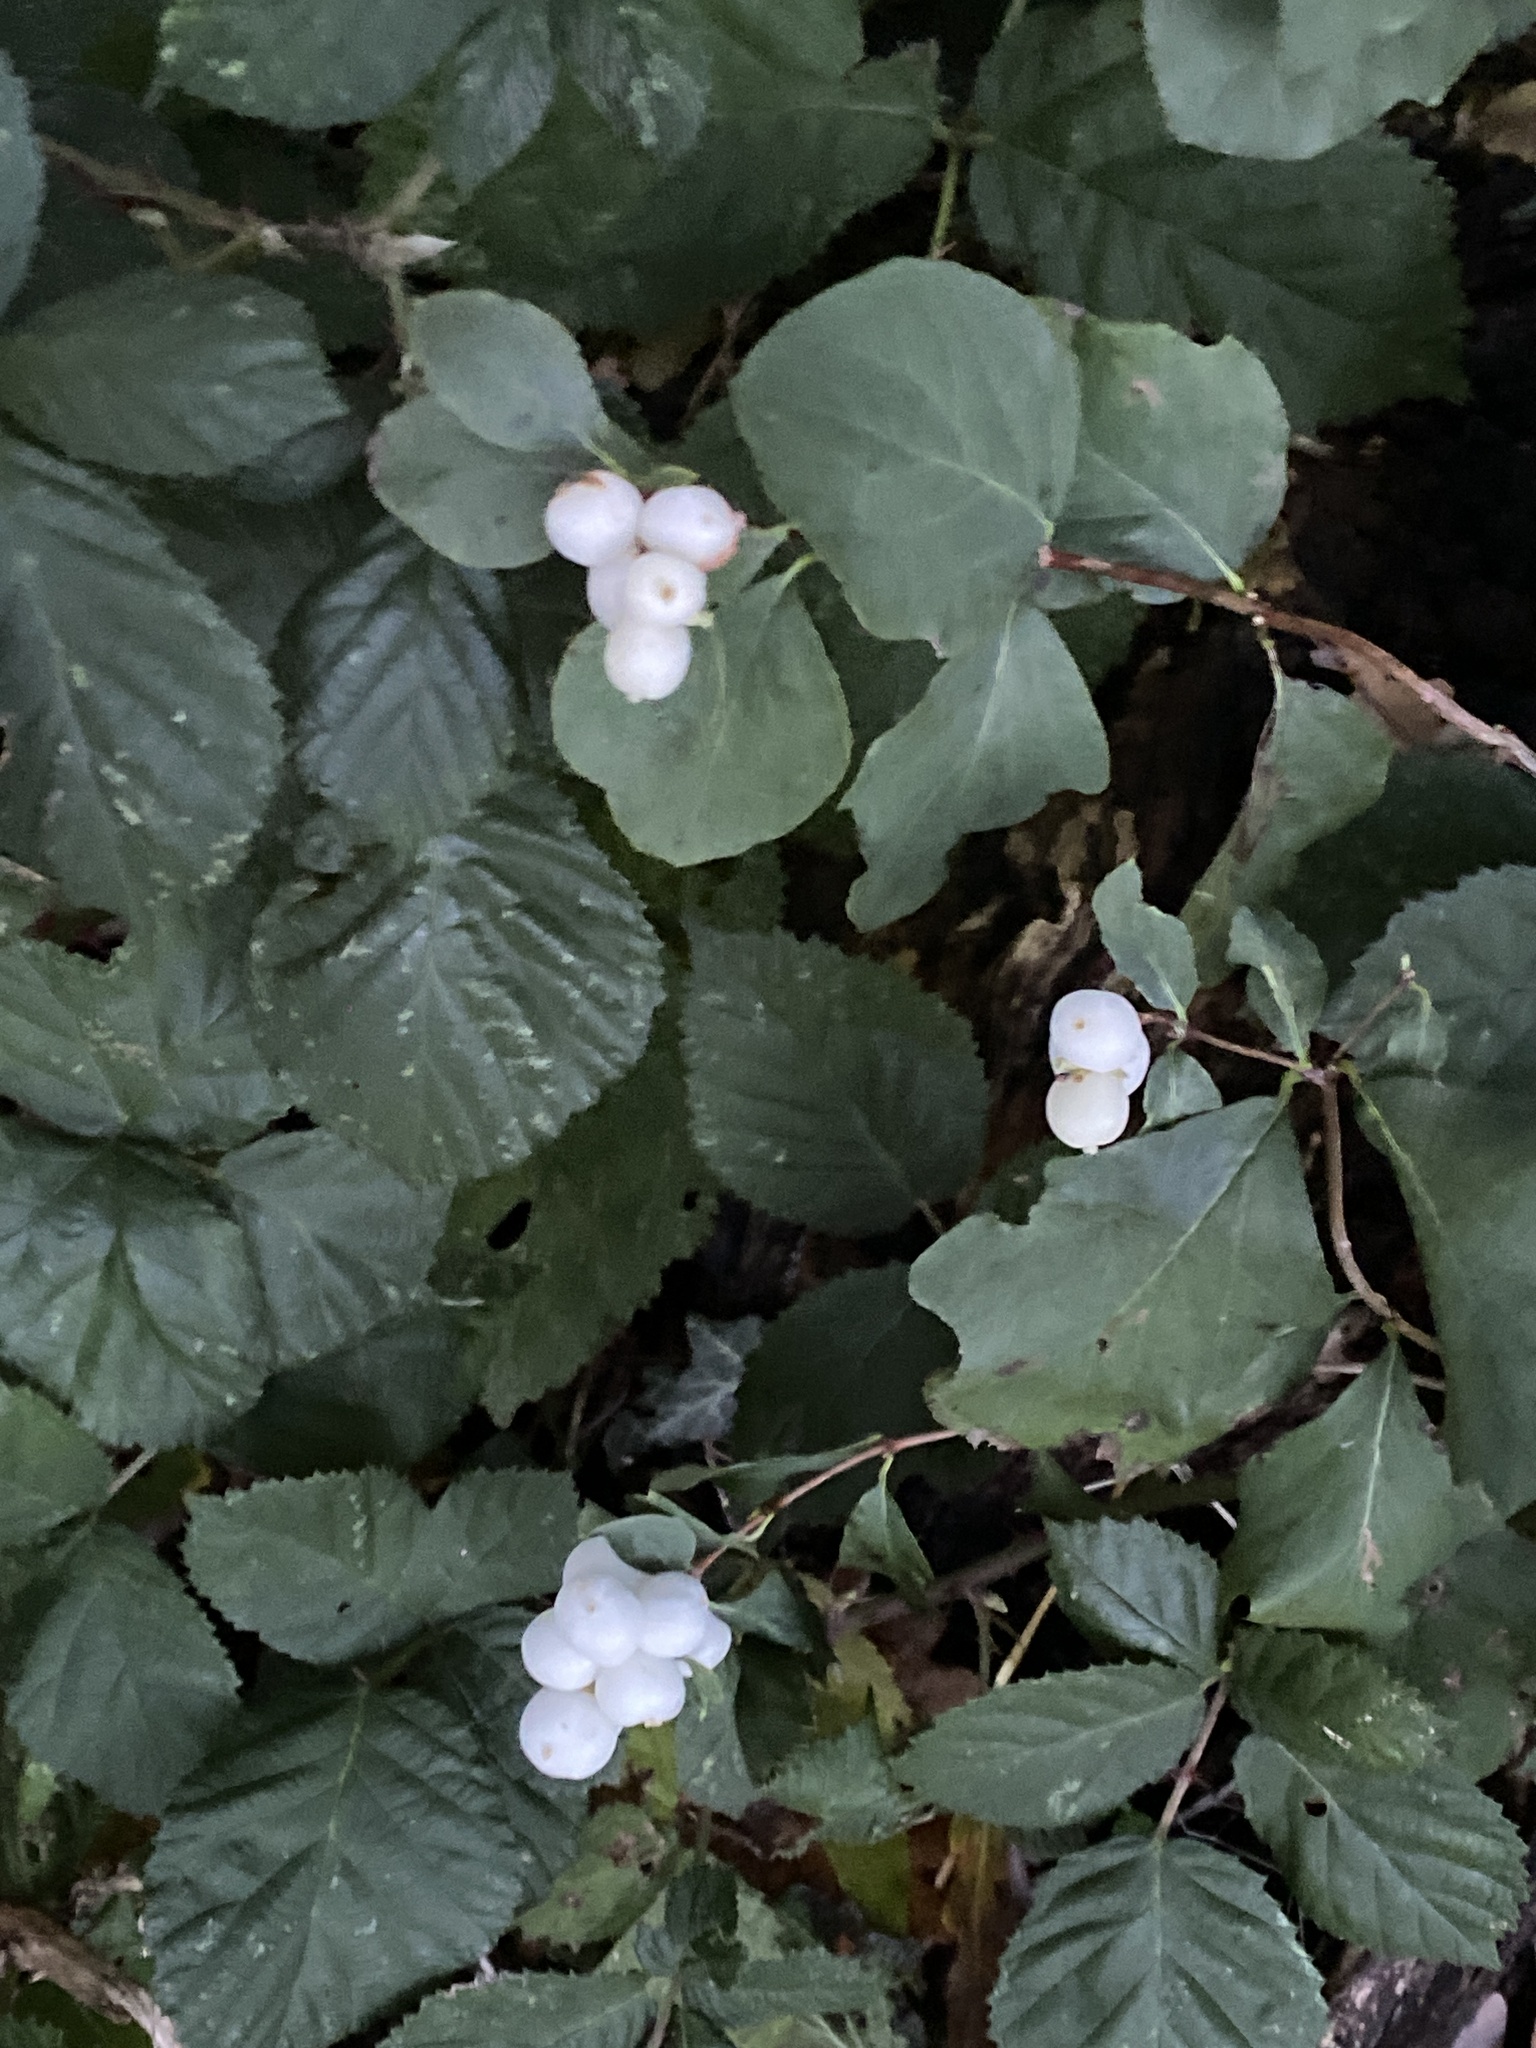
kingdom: Plantae
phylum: Tracheophyta
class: Magnoliopsida
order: Dipsacales
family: Caprifoliaceae
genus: Symphoricarpos
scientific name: Symphoricarpos albus
